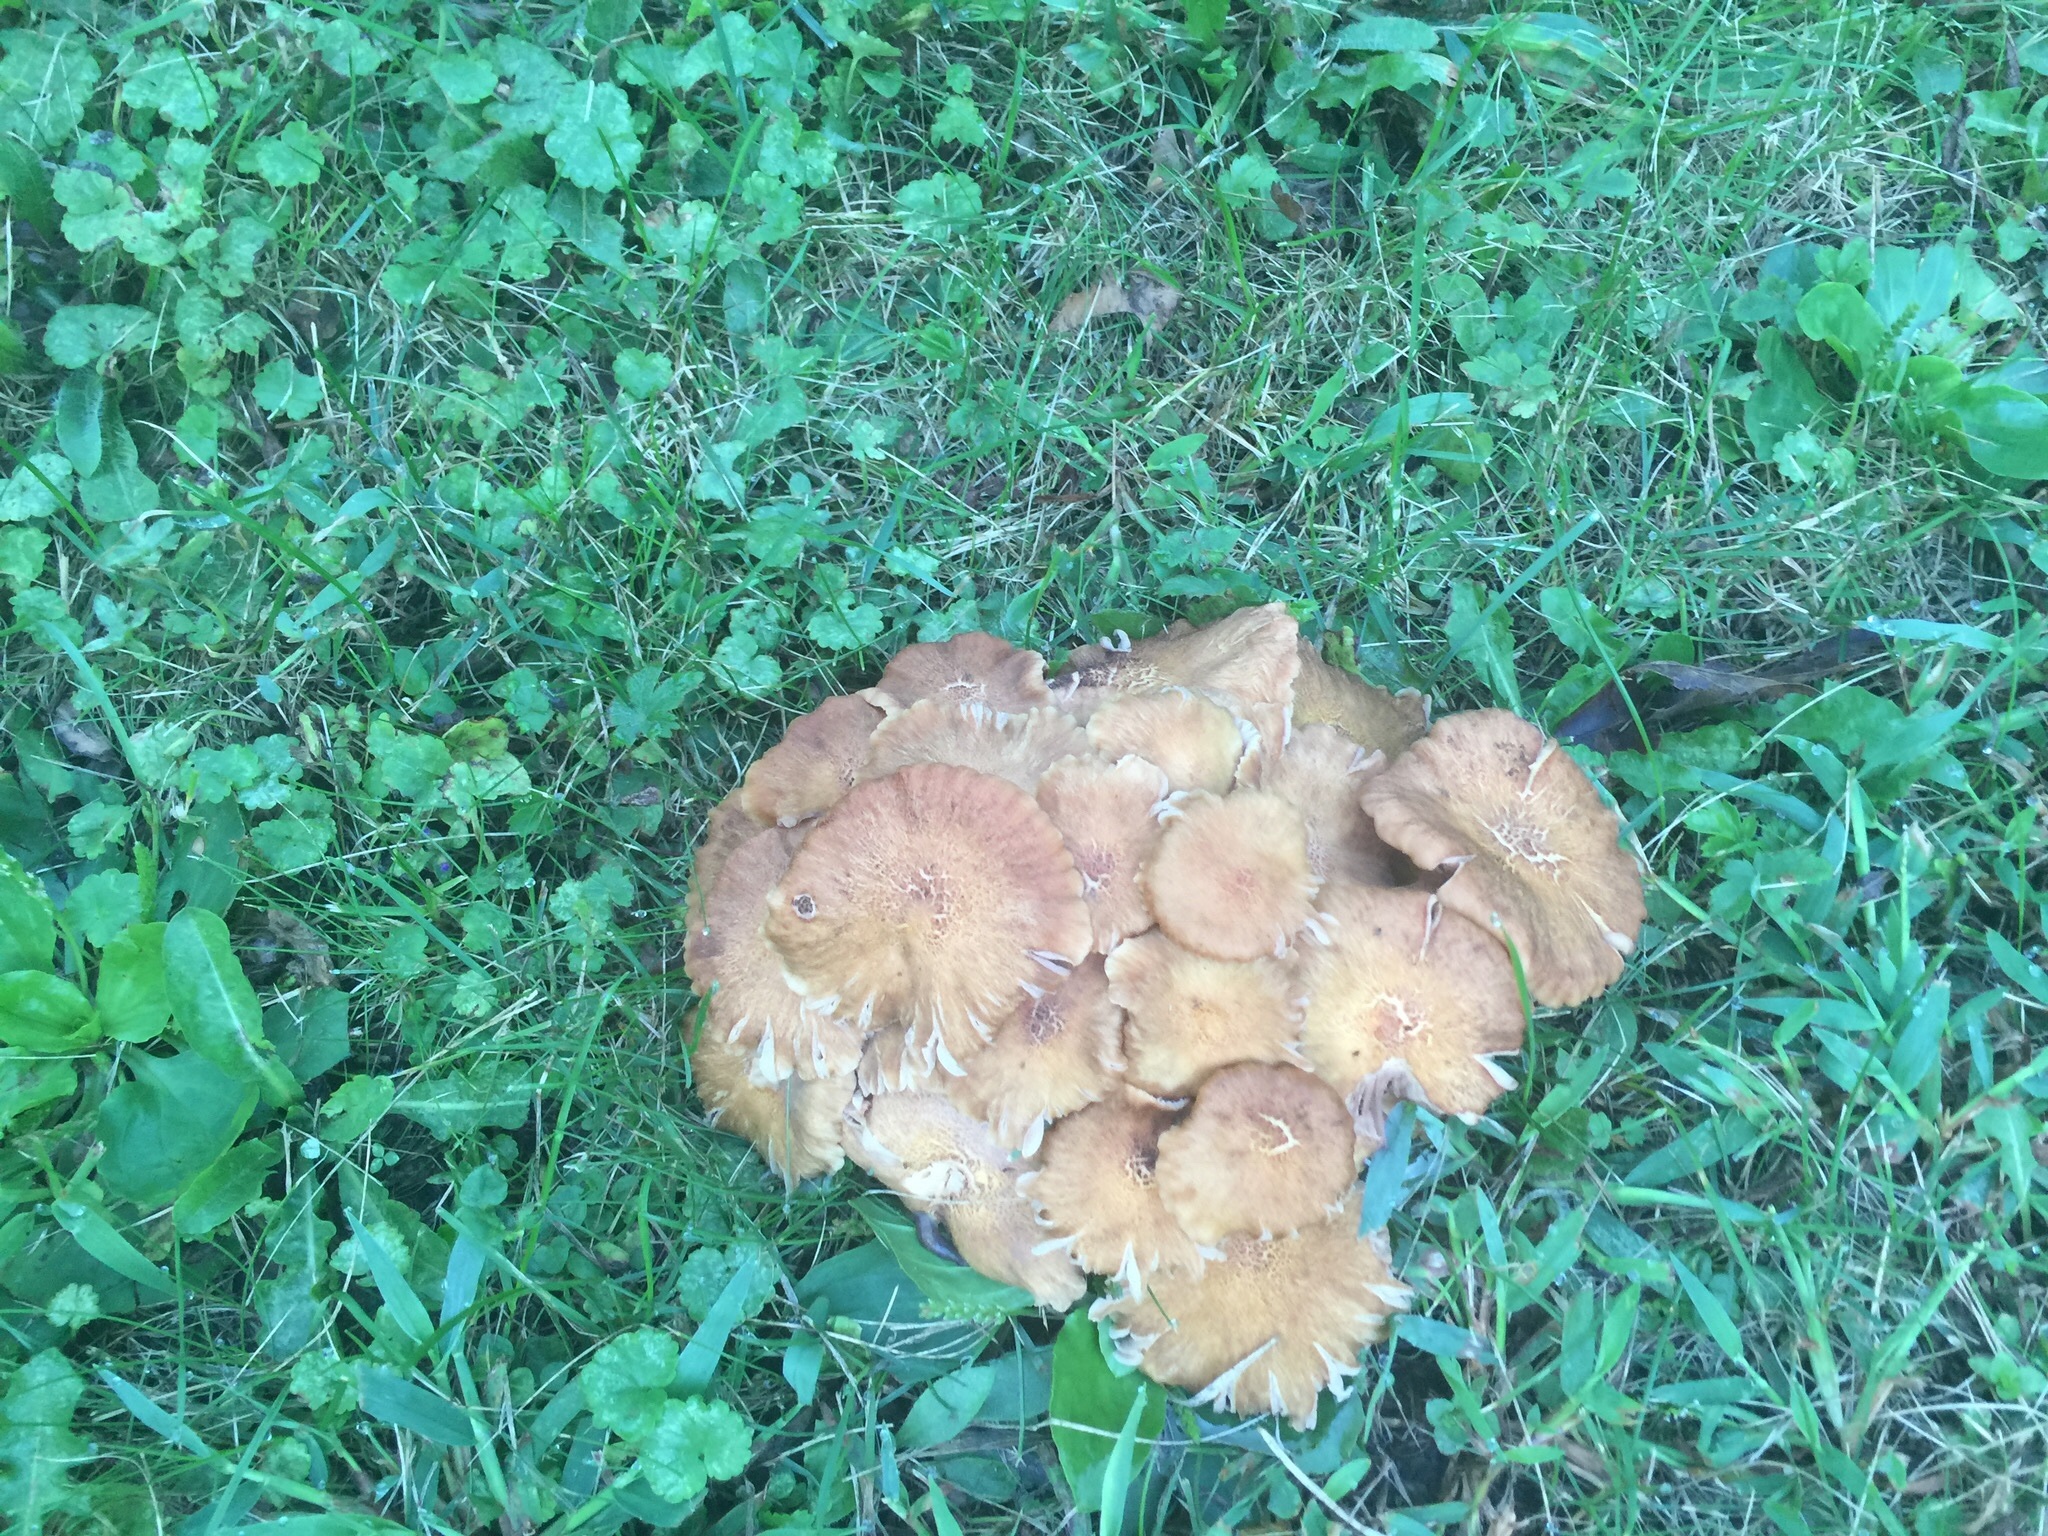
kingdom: Fungi
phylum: Basidiomycota
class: Agaricomycetes
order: Agaricales
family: Physalacriaceae
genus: Desarmillaria
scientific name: Desarmillaria caespitosa
